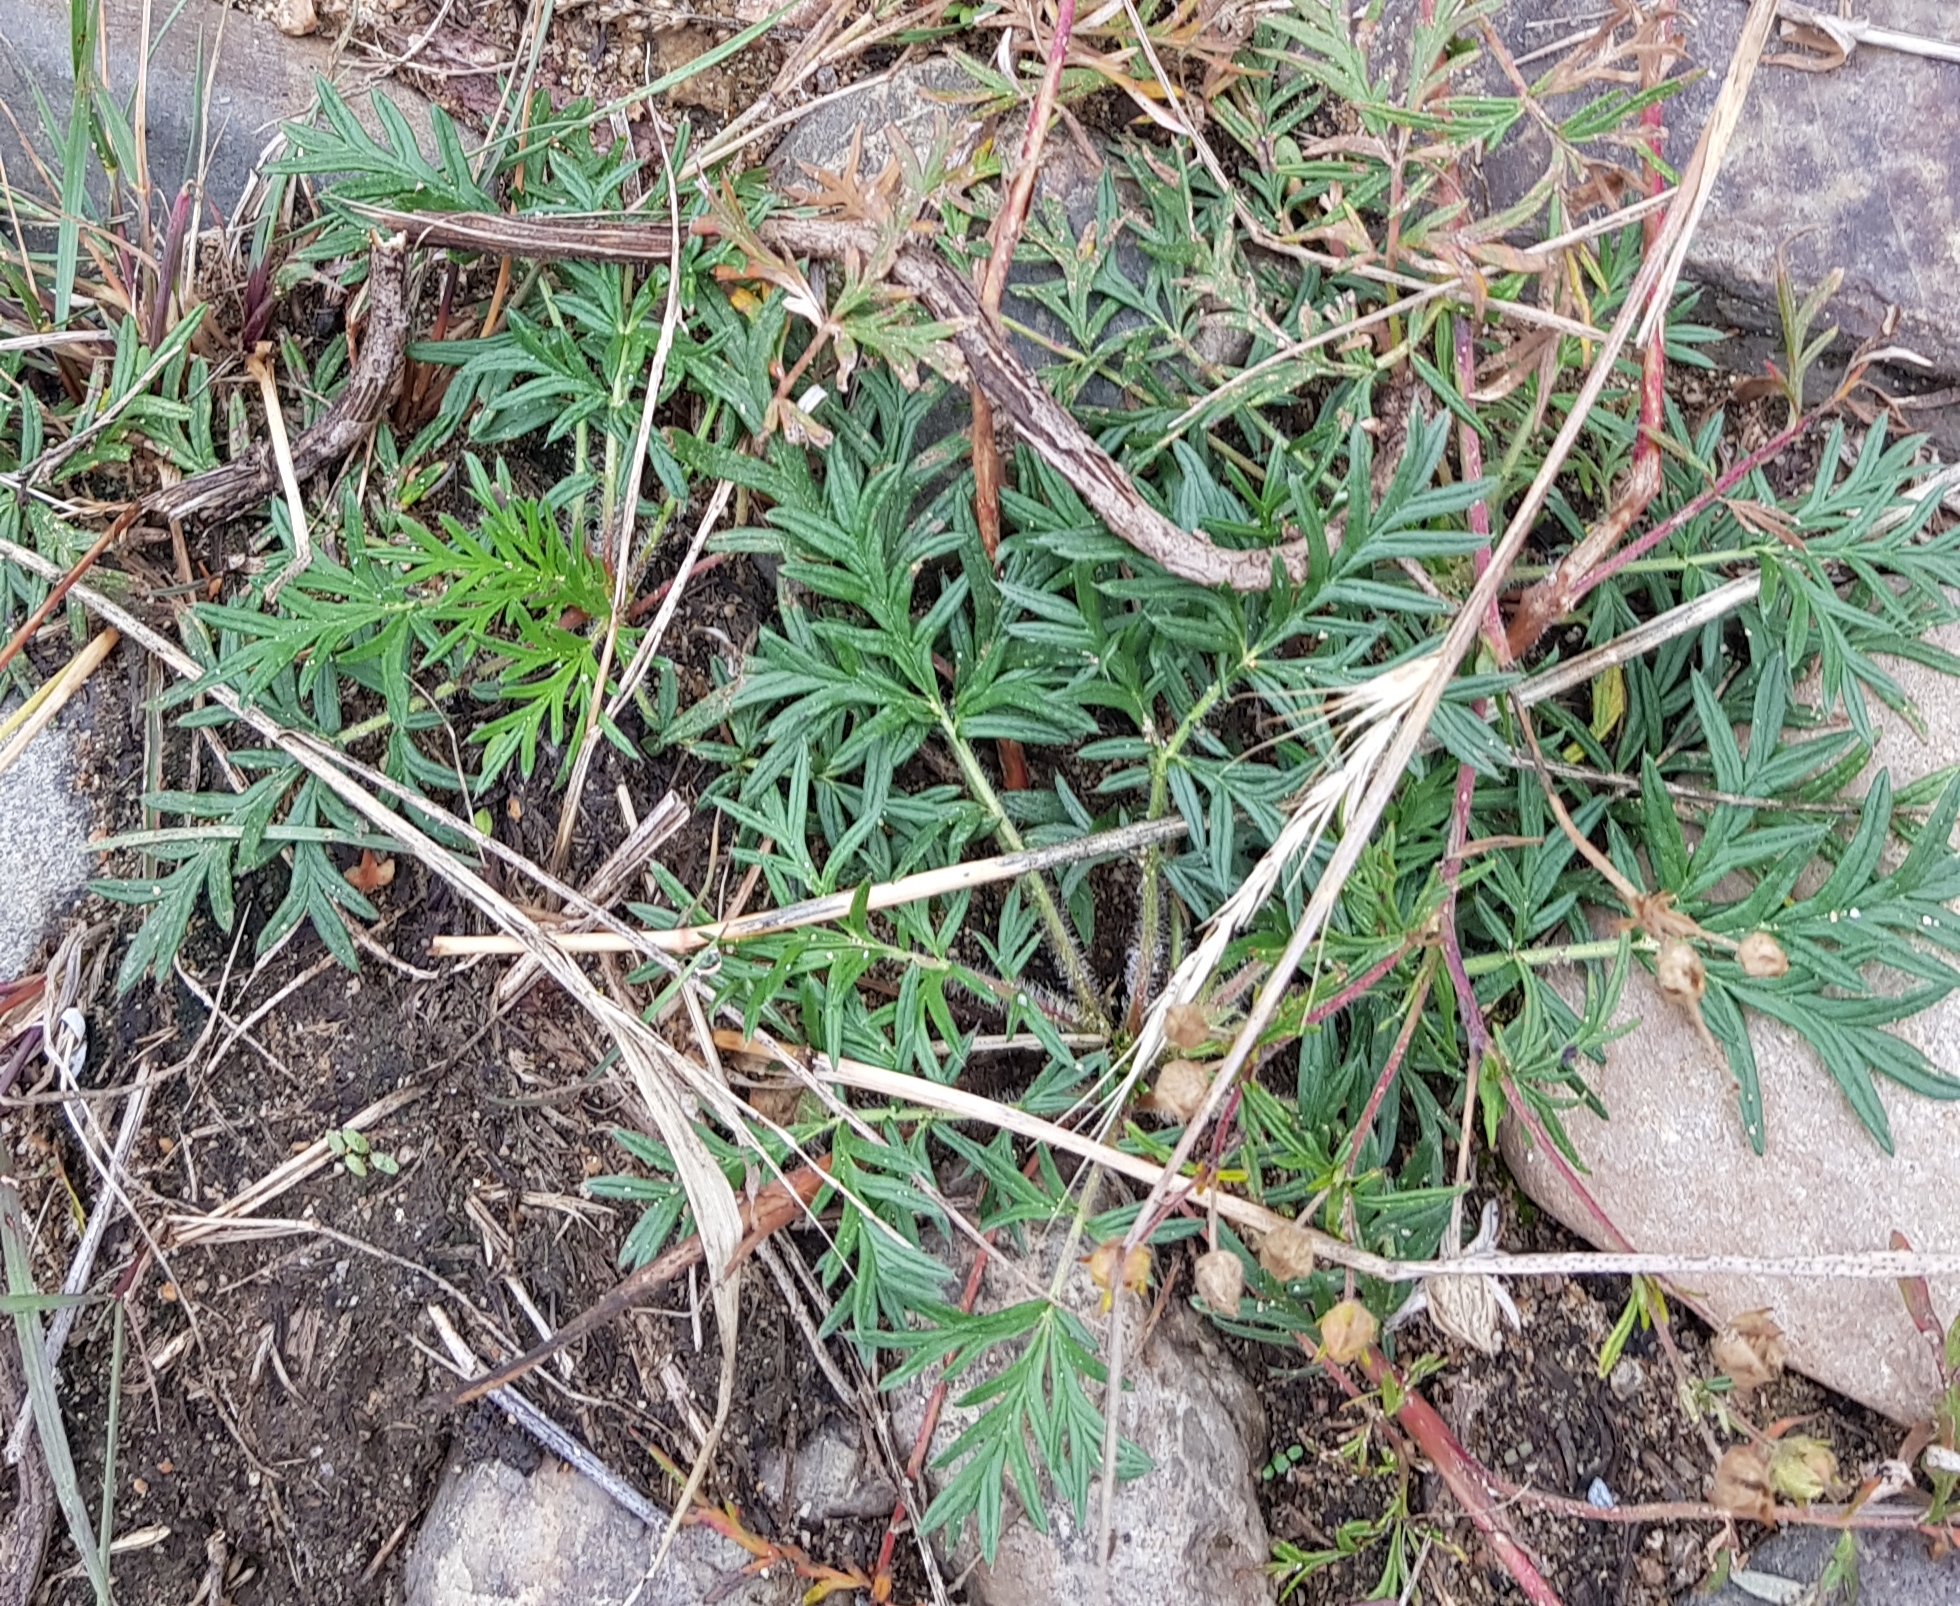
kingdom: Plantae
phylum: Tracheophyta
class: Magnoliopsida
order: Rosales
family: Rosaceae
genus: Potentilla
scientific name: Potentilla tergemina
